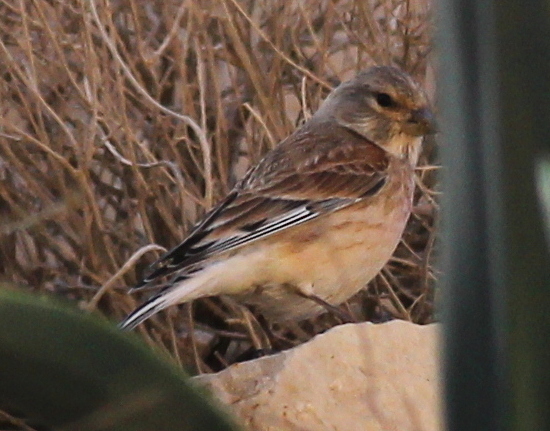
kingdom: Animalia
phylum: Chordata
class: Aves
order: Passeriformes
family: Fringillidae
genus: Linaria
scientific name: Linaria cannabina
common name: Common linnet
